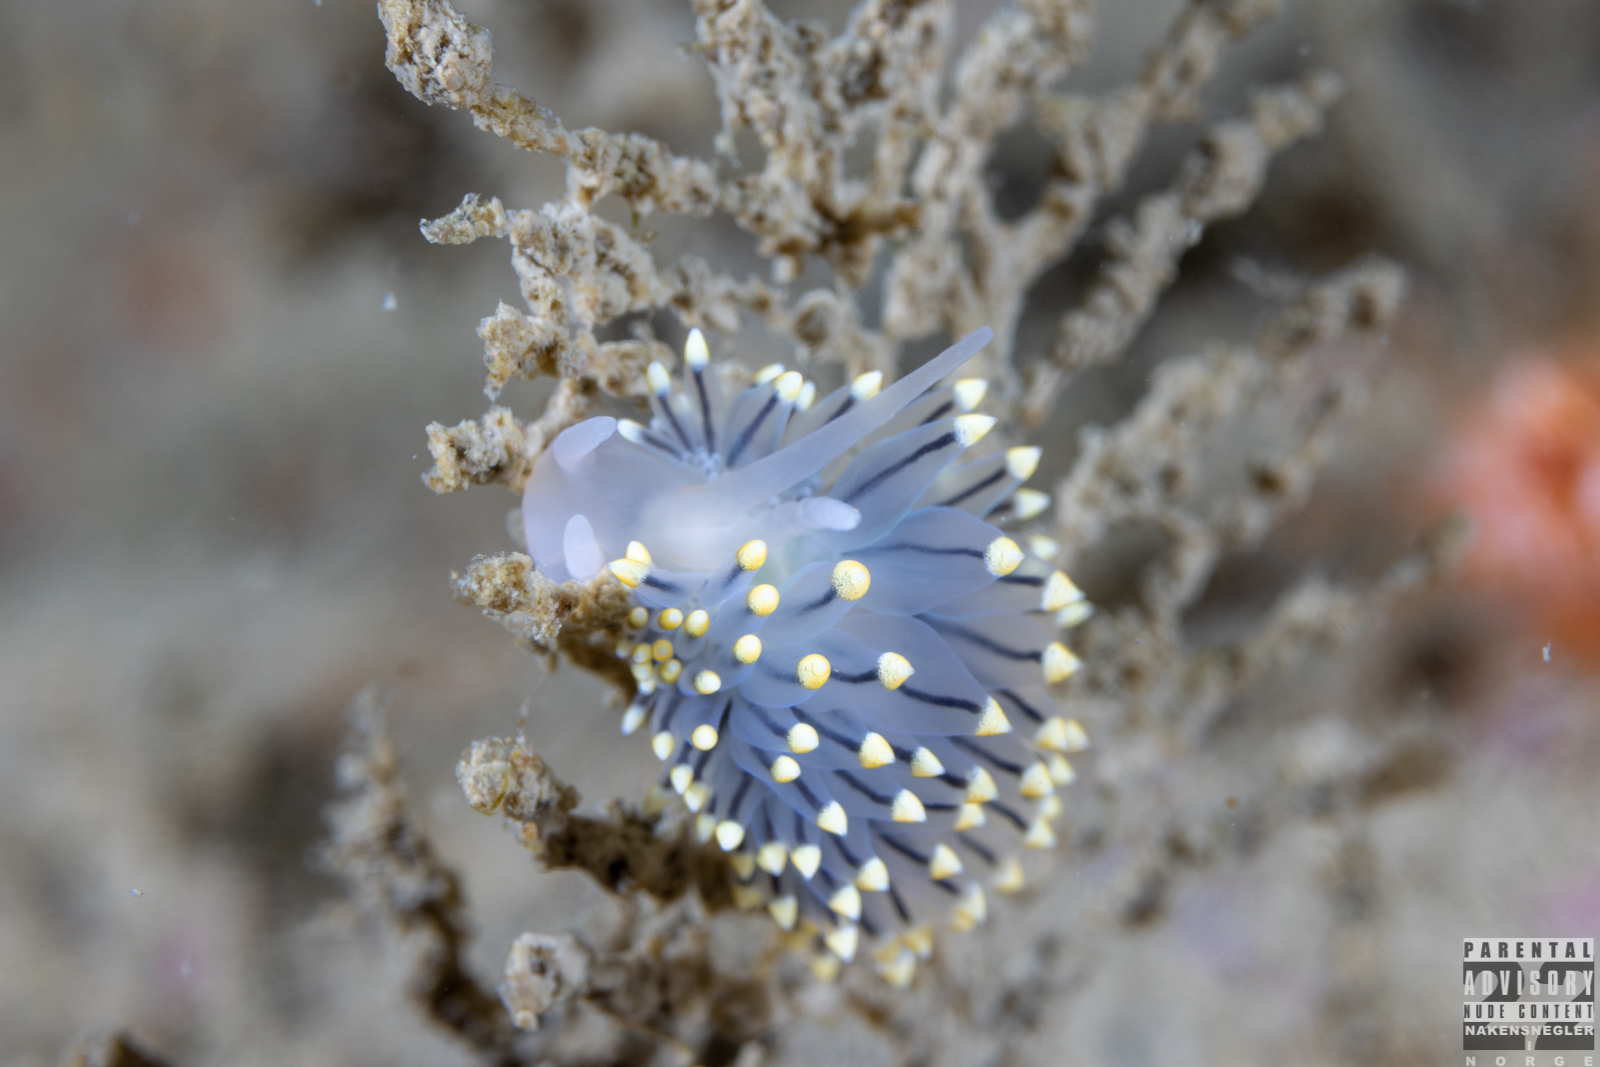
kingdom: Animalia
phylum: Mollusca
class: Gastropoda
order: Nudibranchia
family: Eubranchidae
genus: Eubranchus
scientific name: Eubranchus tricolor
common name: Painted balloon aeolis
